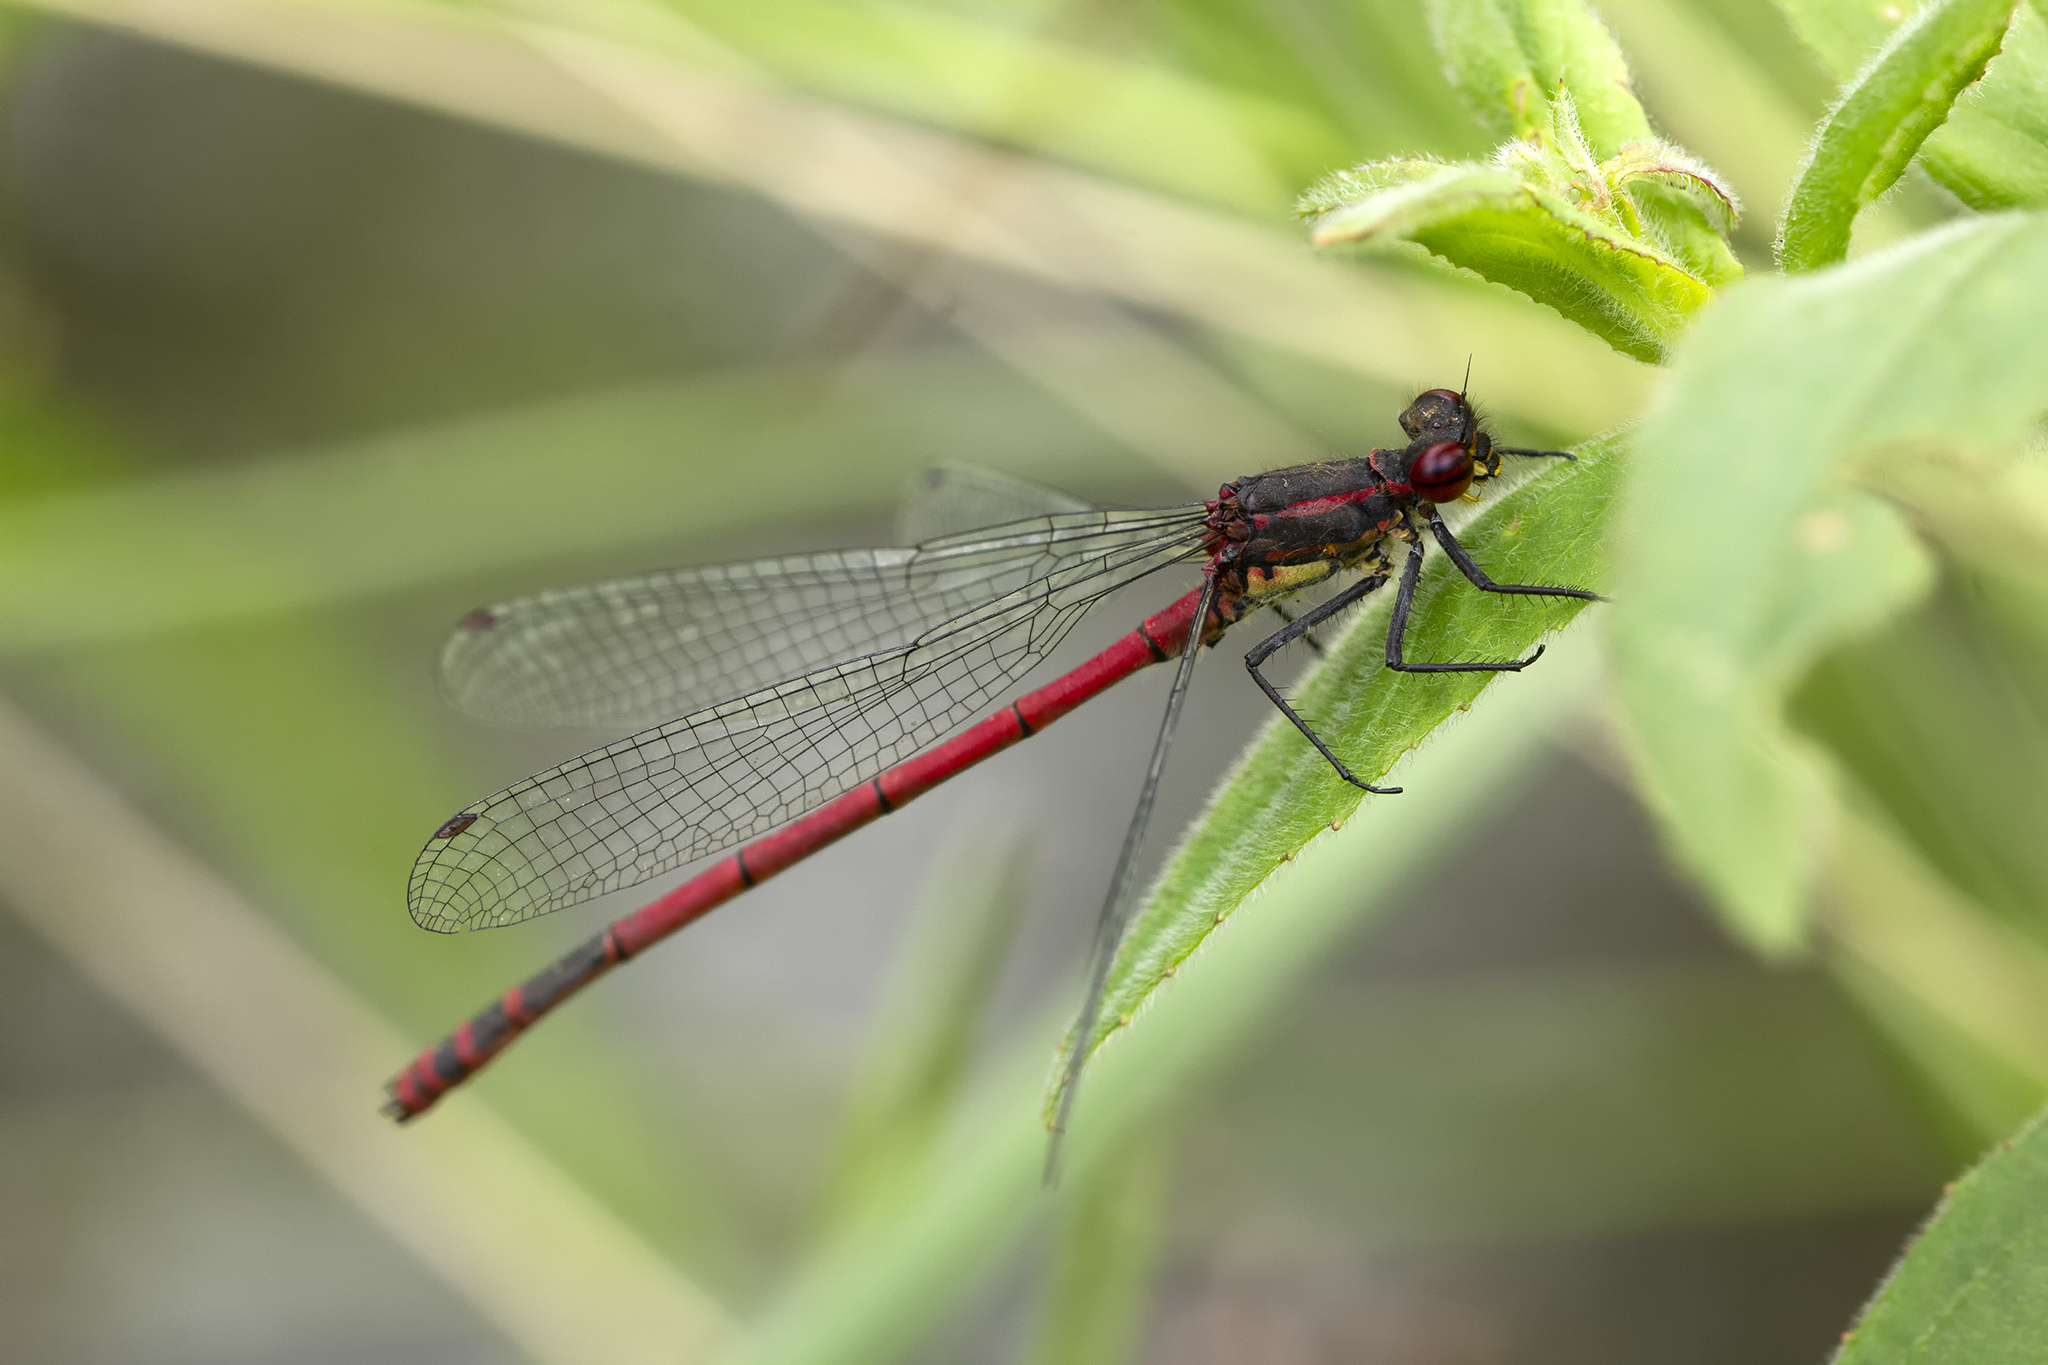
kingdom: Animalia
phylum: Arthropoda
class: Insecta
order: Odonata
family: Coenagrionidae
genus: Pyrrhosoma
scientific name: Pyrrhosoma nymphula
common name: Large red damsel
